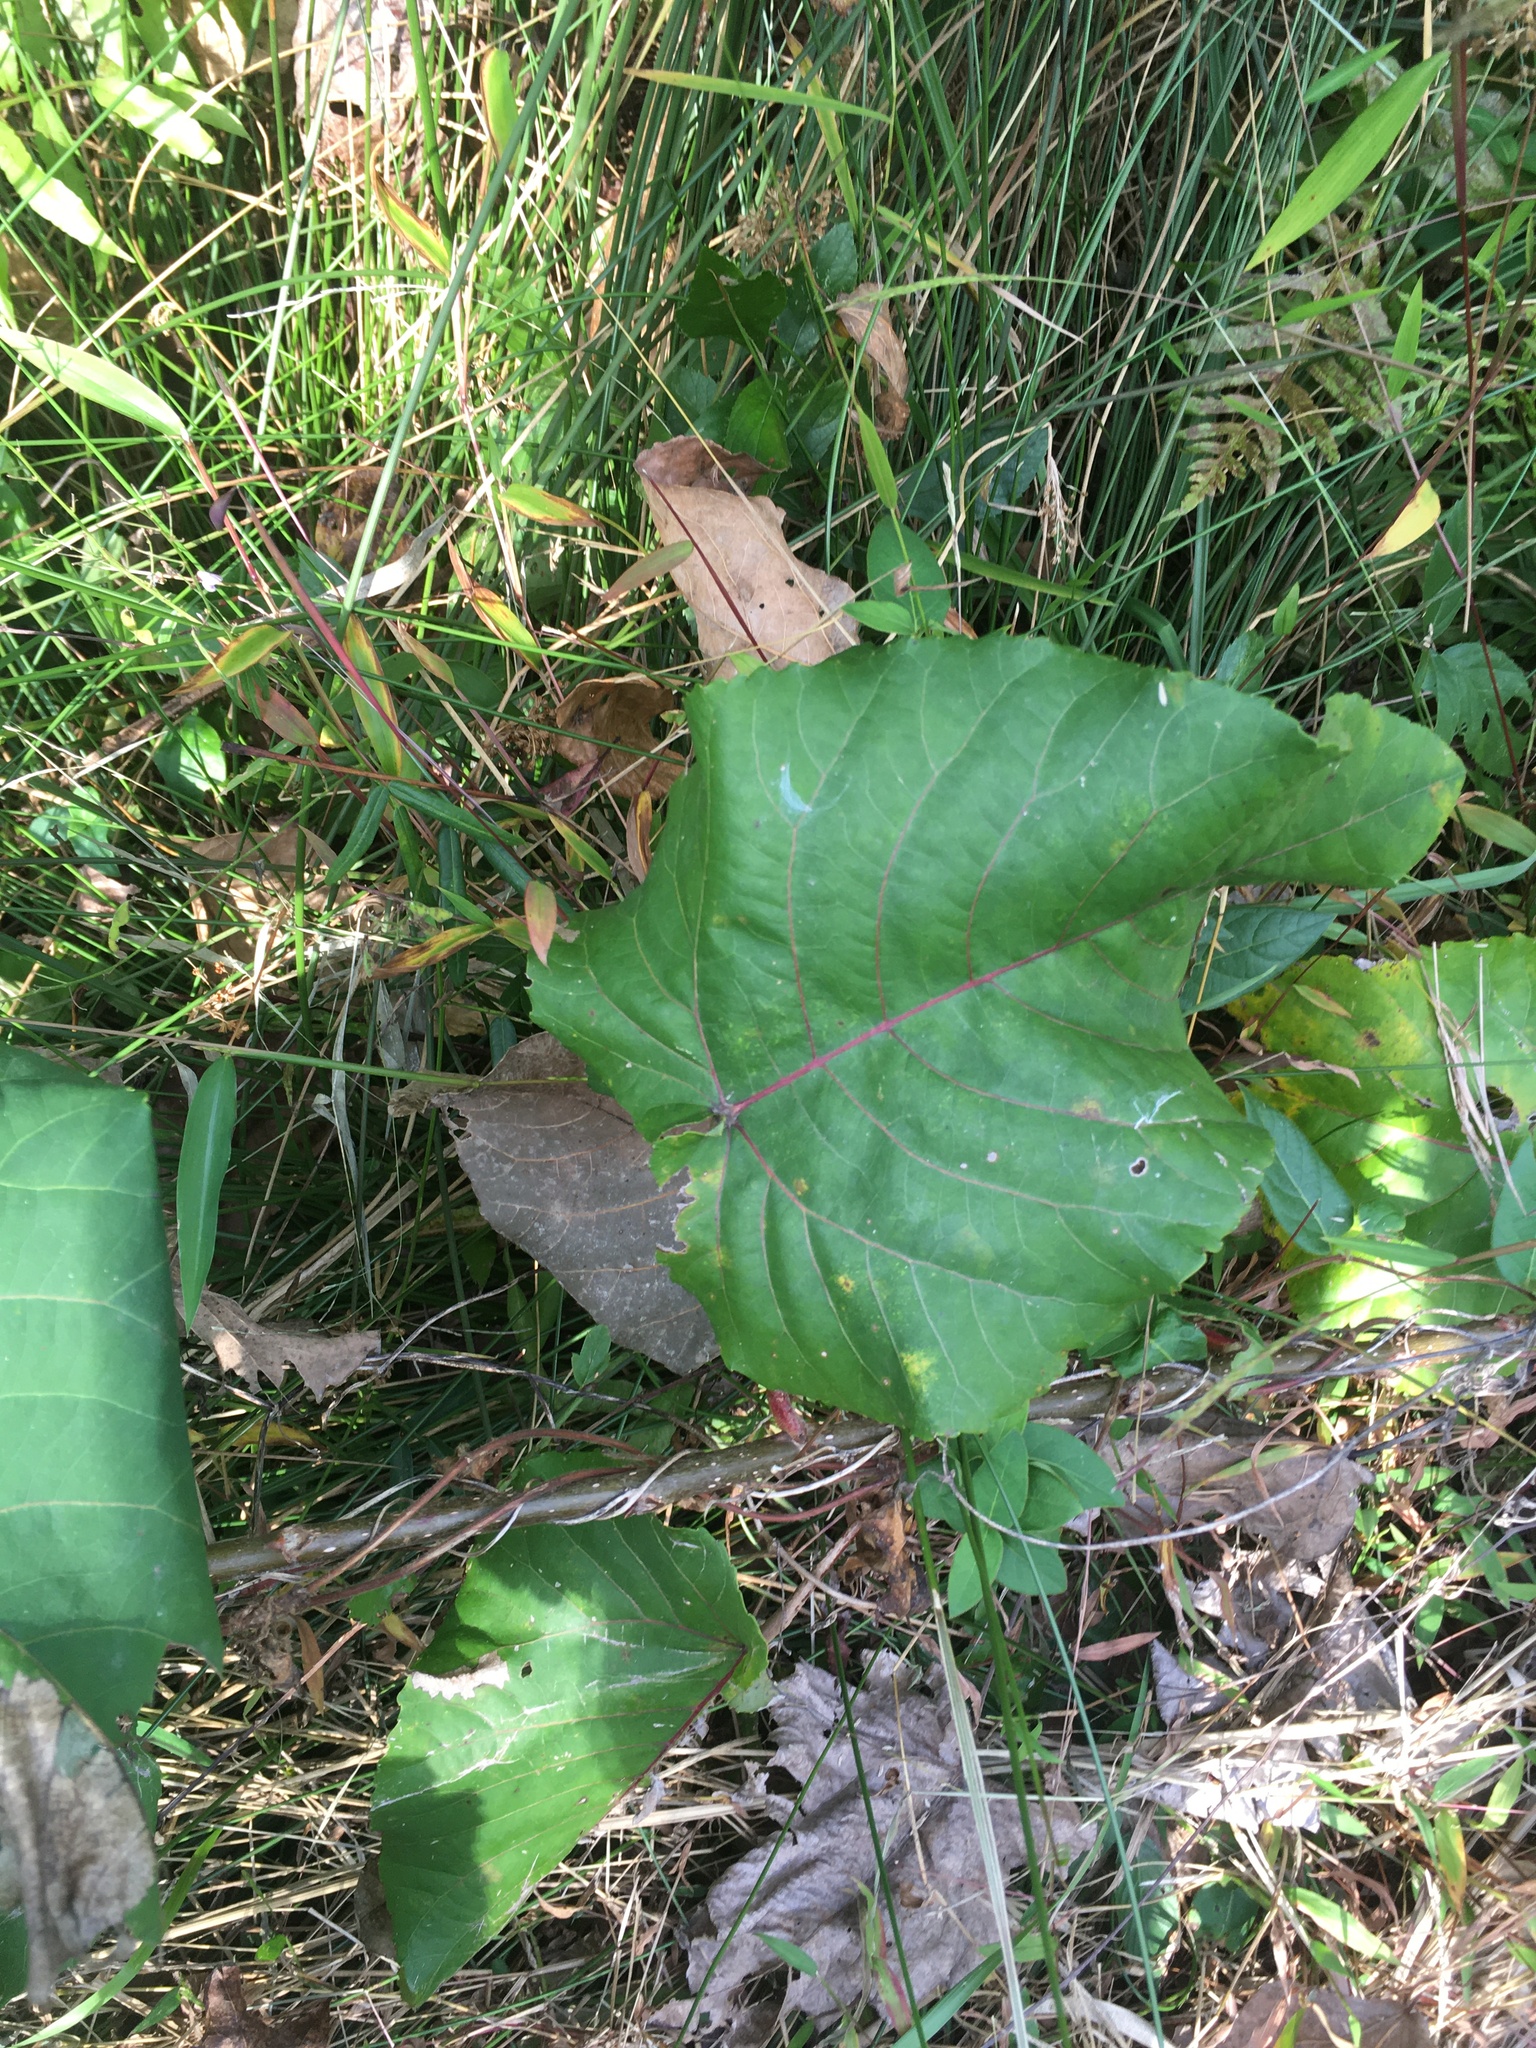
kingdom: Plantae
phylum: Tracheophyta
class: Magnoliopsida
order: Malpighiales
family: Salicaceae
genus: Populus
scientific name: Populus heterophylla
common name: Downy poplar
